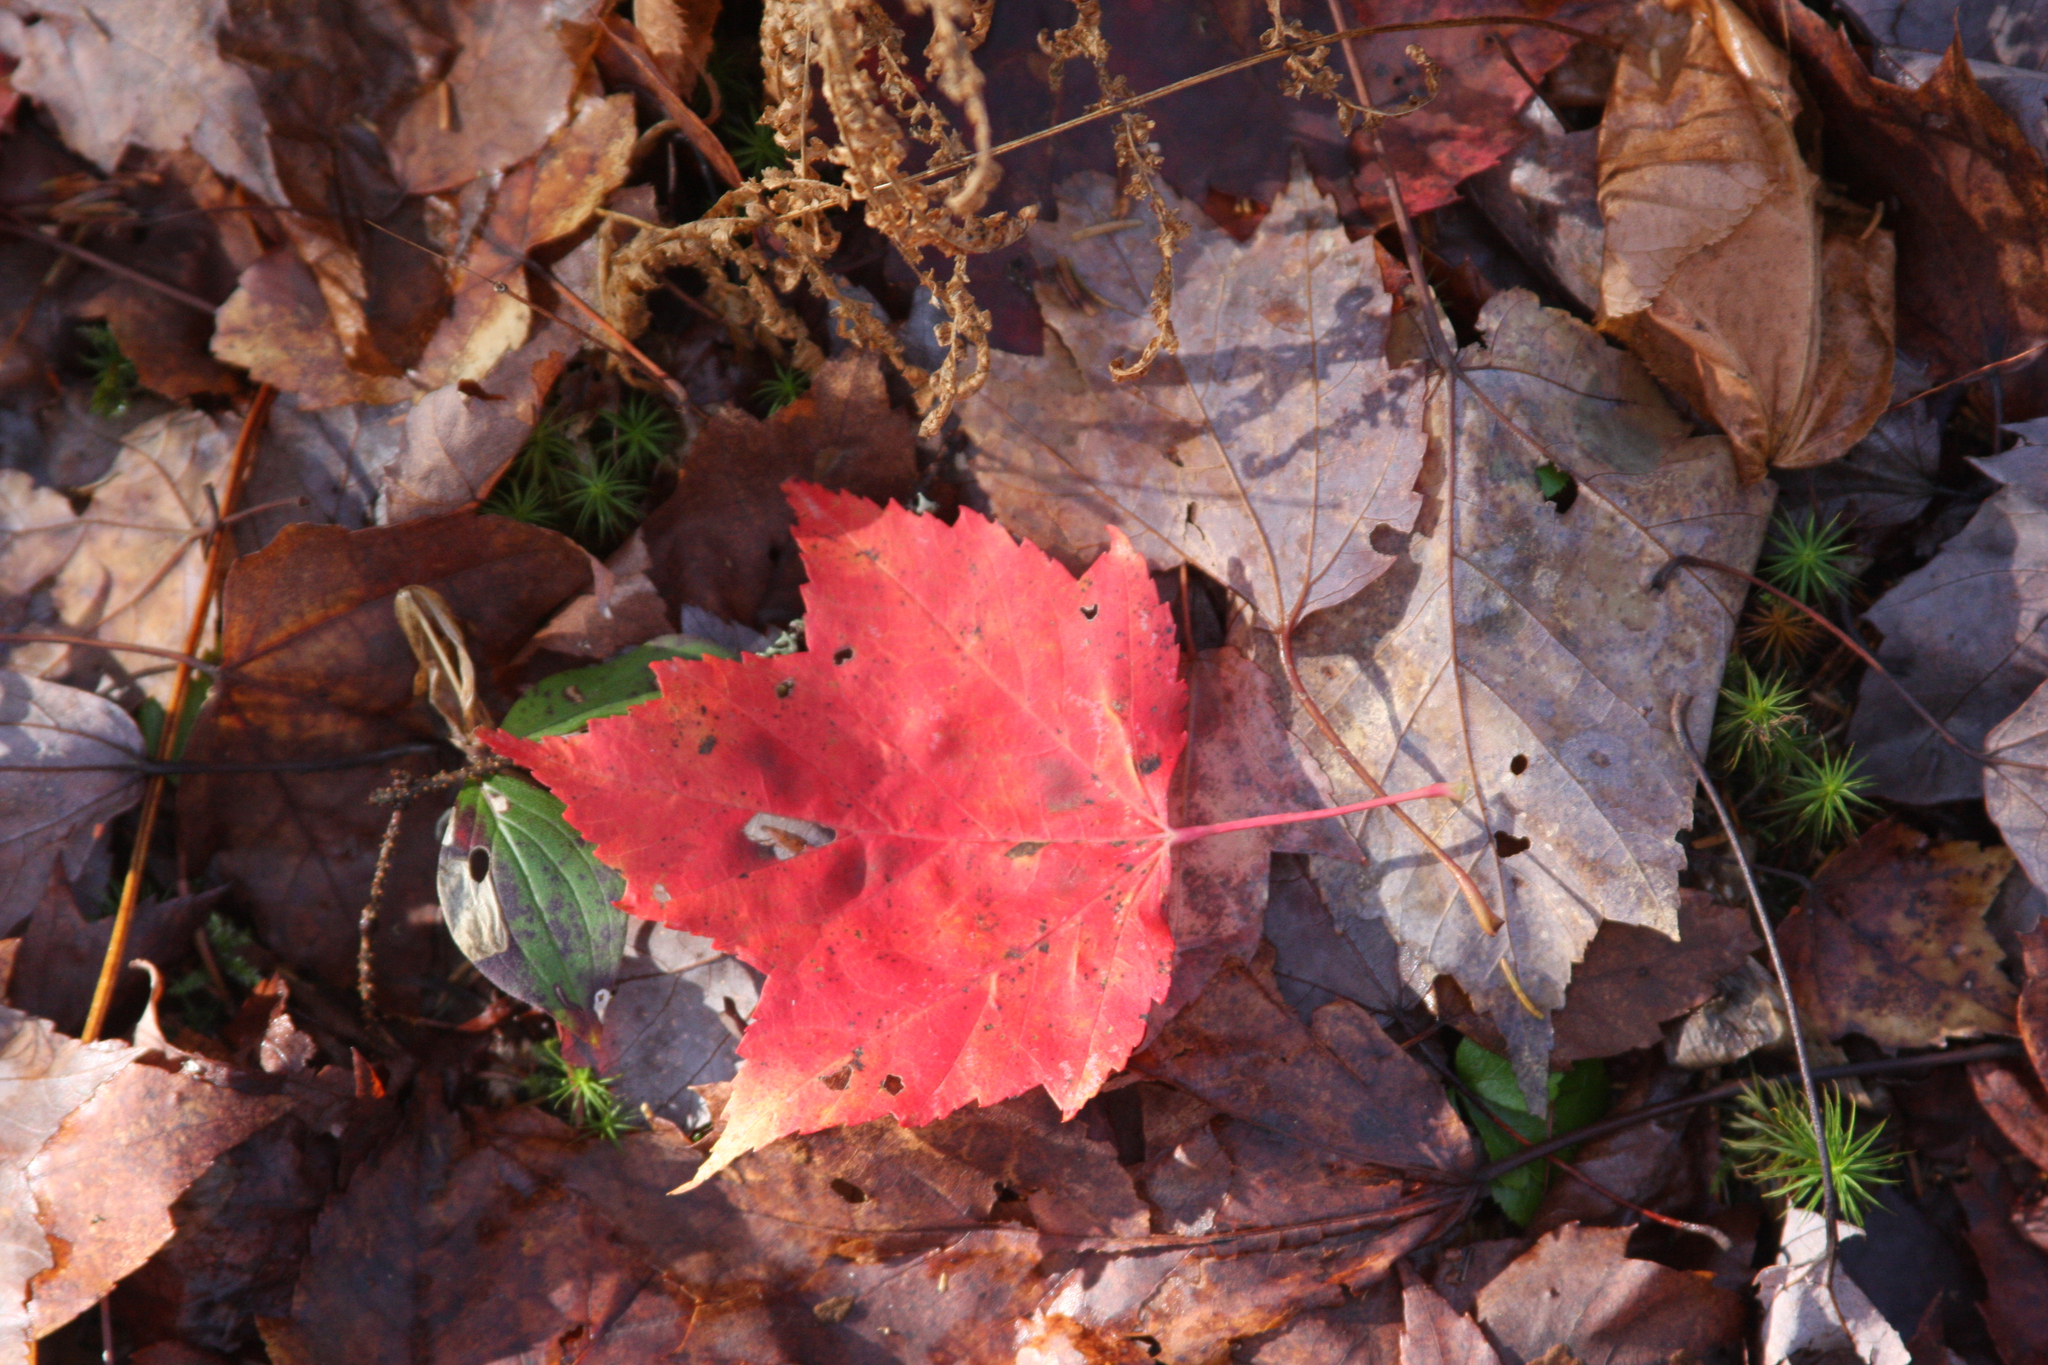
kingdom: Plantae
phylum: Tracheophyta
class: Magnoliopsida
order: Sapindales
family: Sapindaceae
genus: Acer
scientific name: Acer rubrum
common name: Red maple
